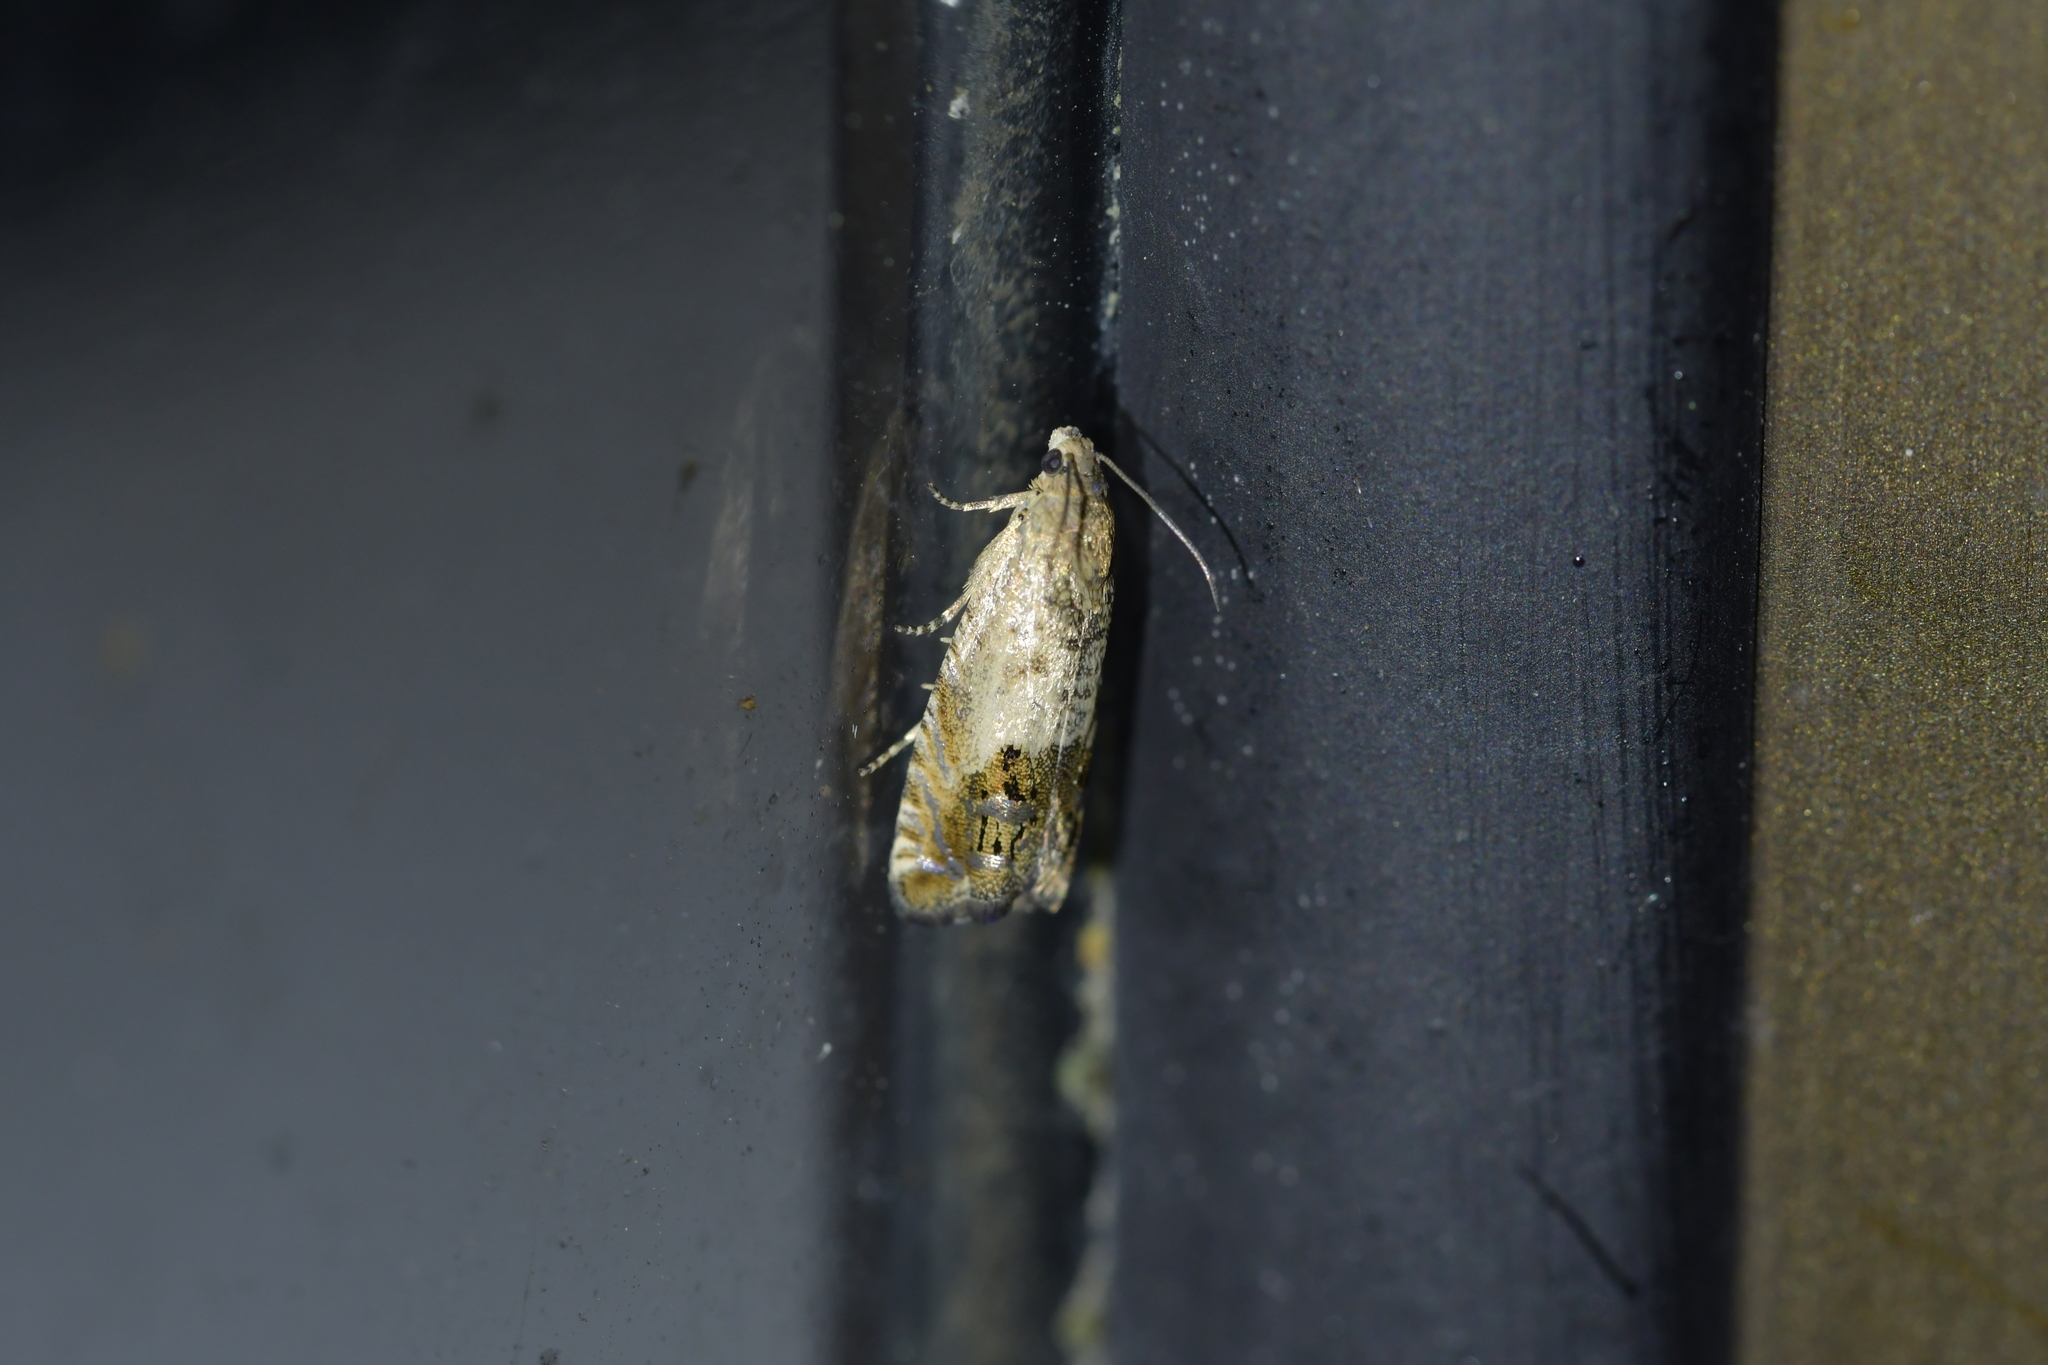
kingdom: Animalia
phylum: Arthropoda
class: Insecta
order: Lepidoptera
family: Tortricidae
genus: Cydia
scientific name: Cydia succedana
